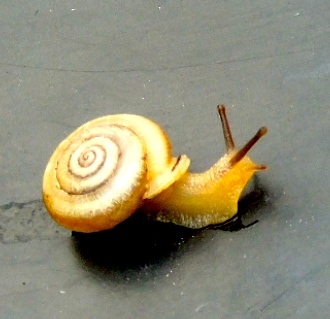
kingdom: Animalia
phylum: Mollusca
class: Gastropoda
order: Stylommatophora
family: Polygyridae
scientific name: Polygyridae
